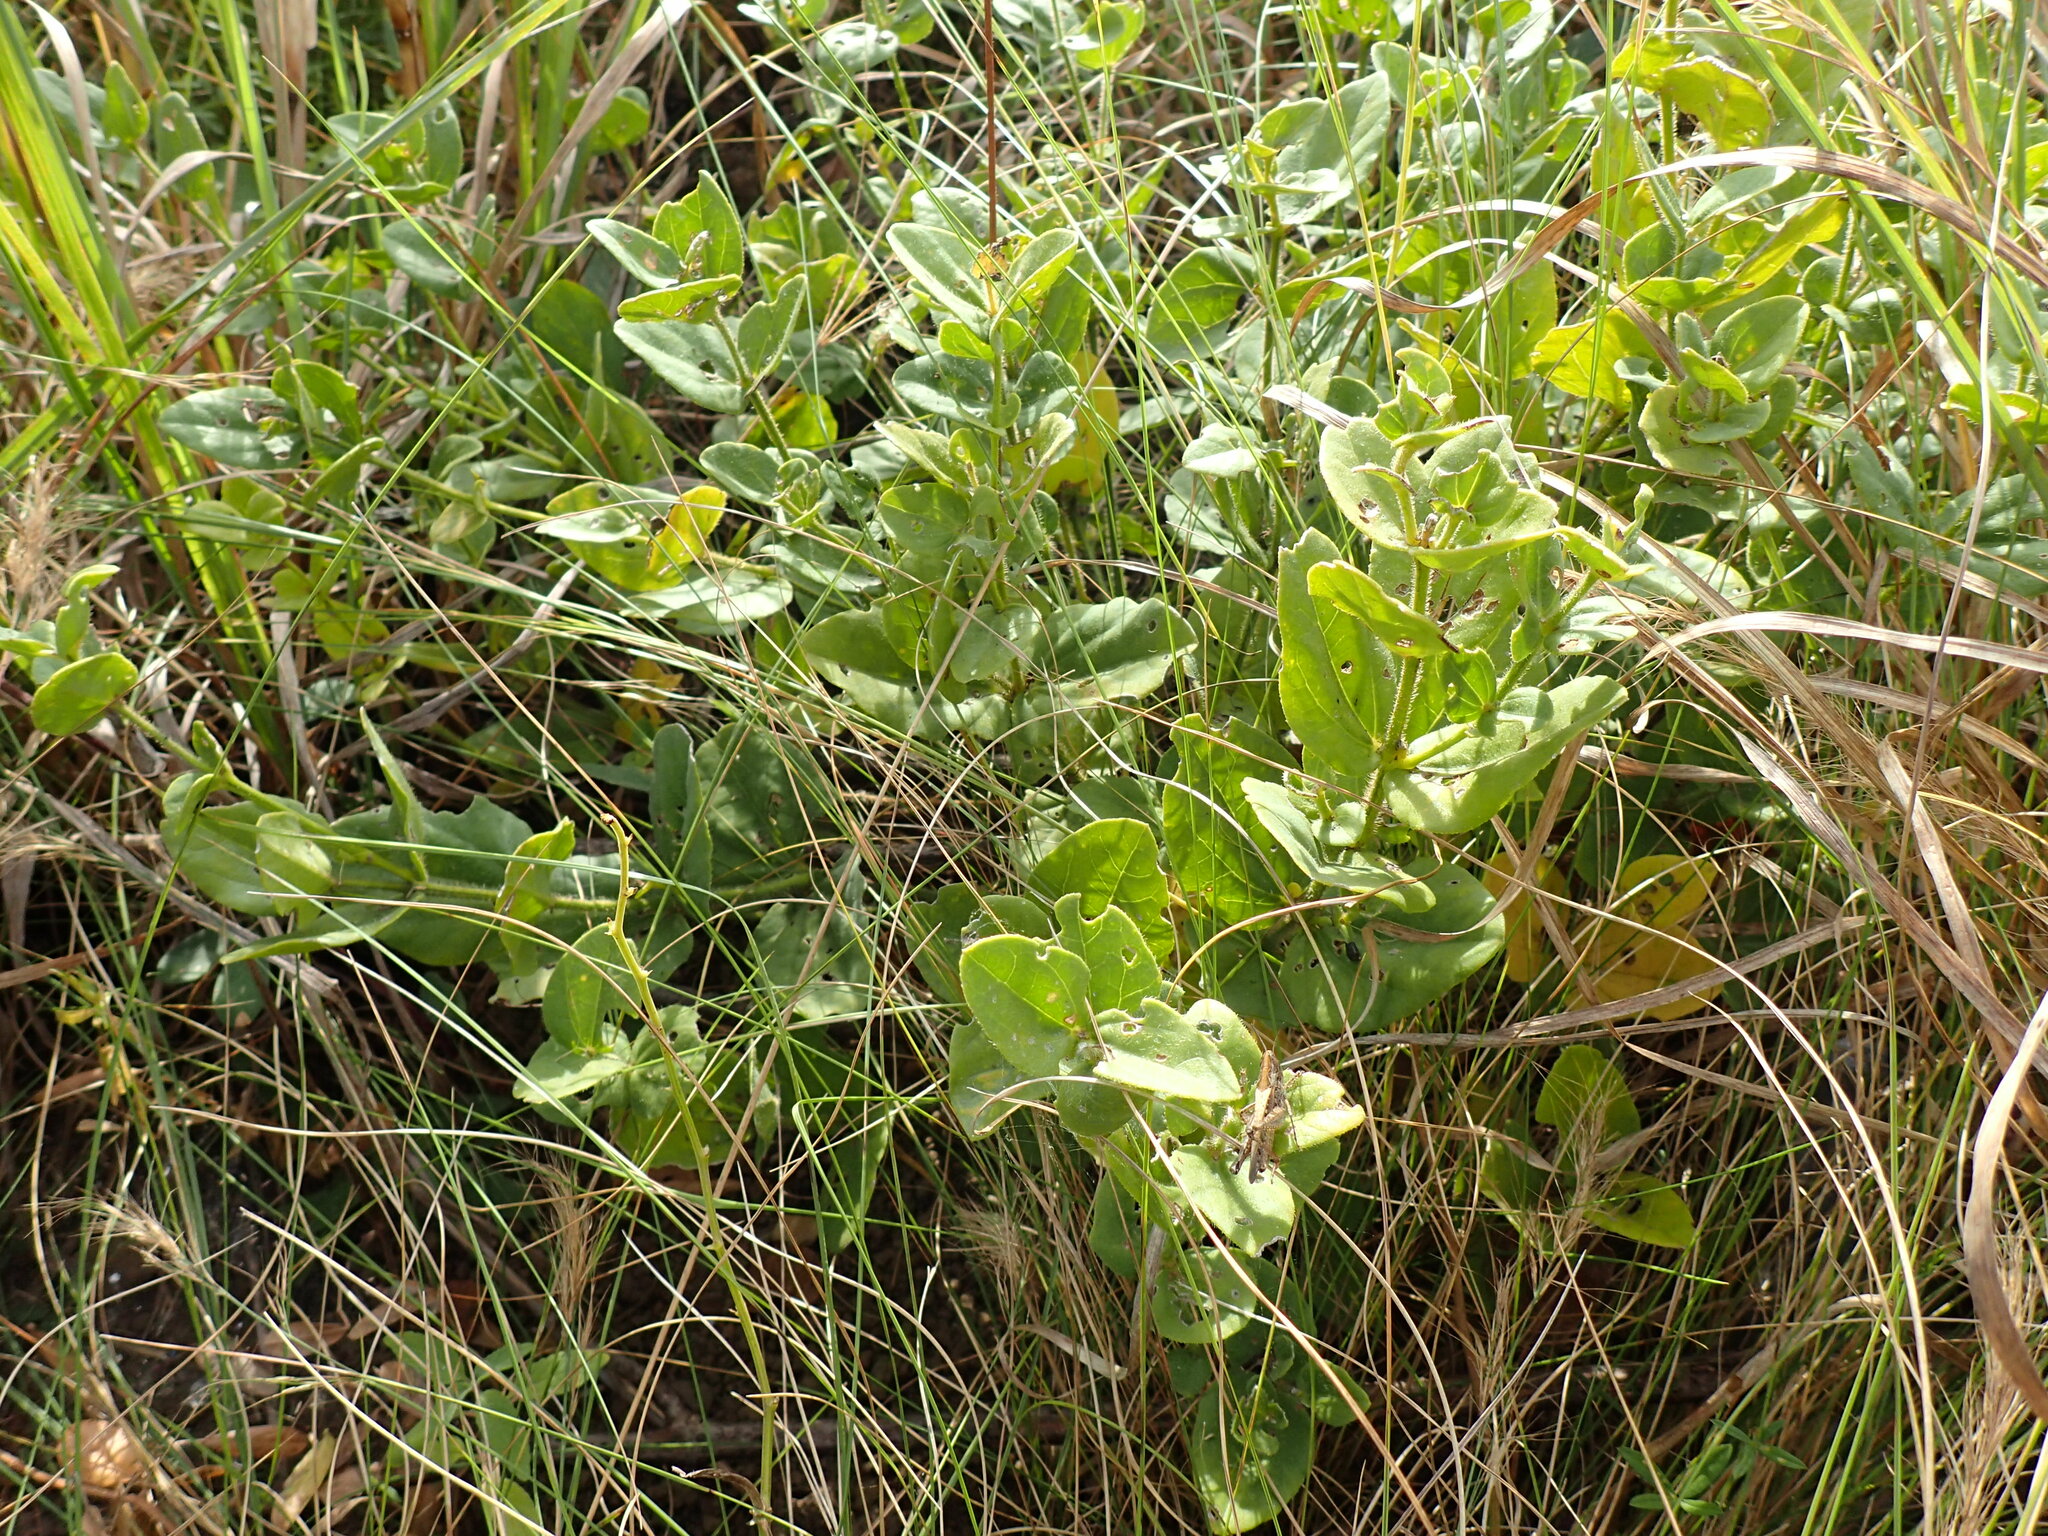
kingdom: Plantae
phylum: Tracheophyta
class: Magnoliopsida
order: Lamiales
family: Acanthaceae
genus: Thunbergia
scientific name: Thunbergia natalensis
